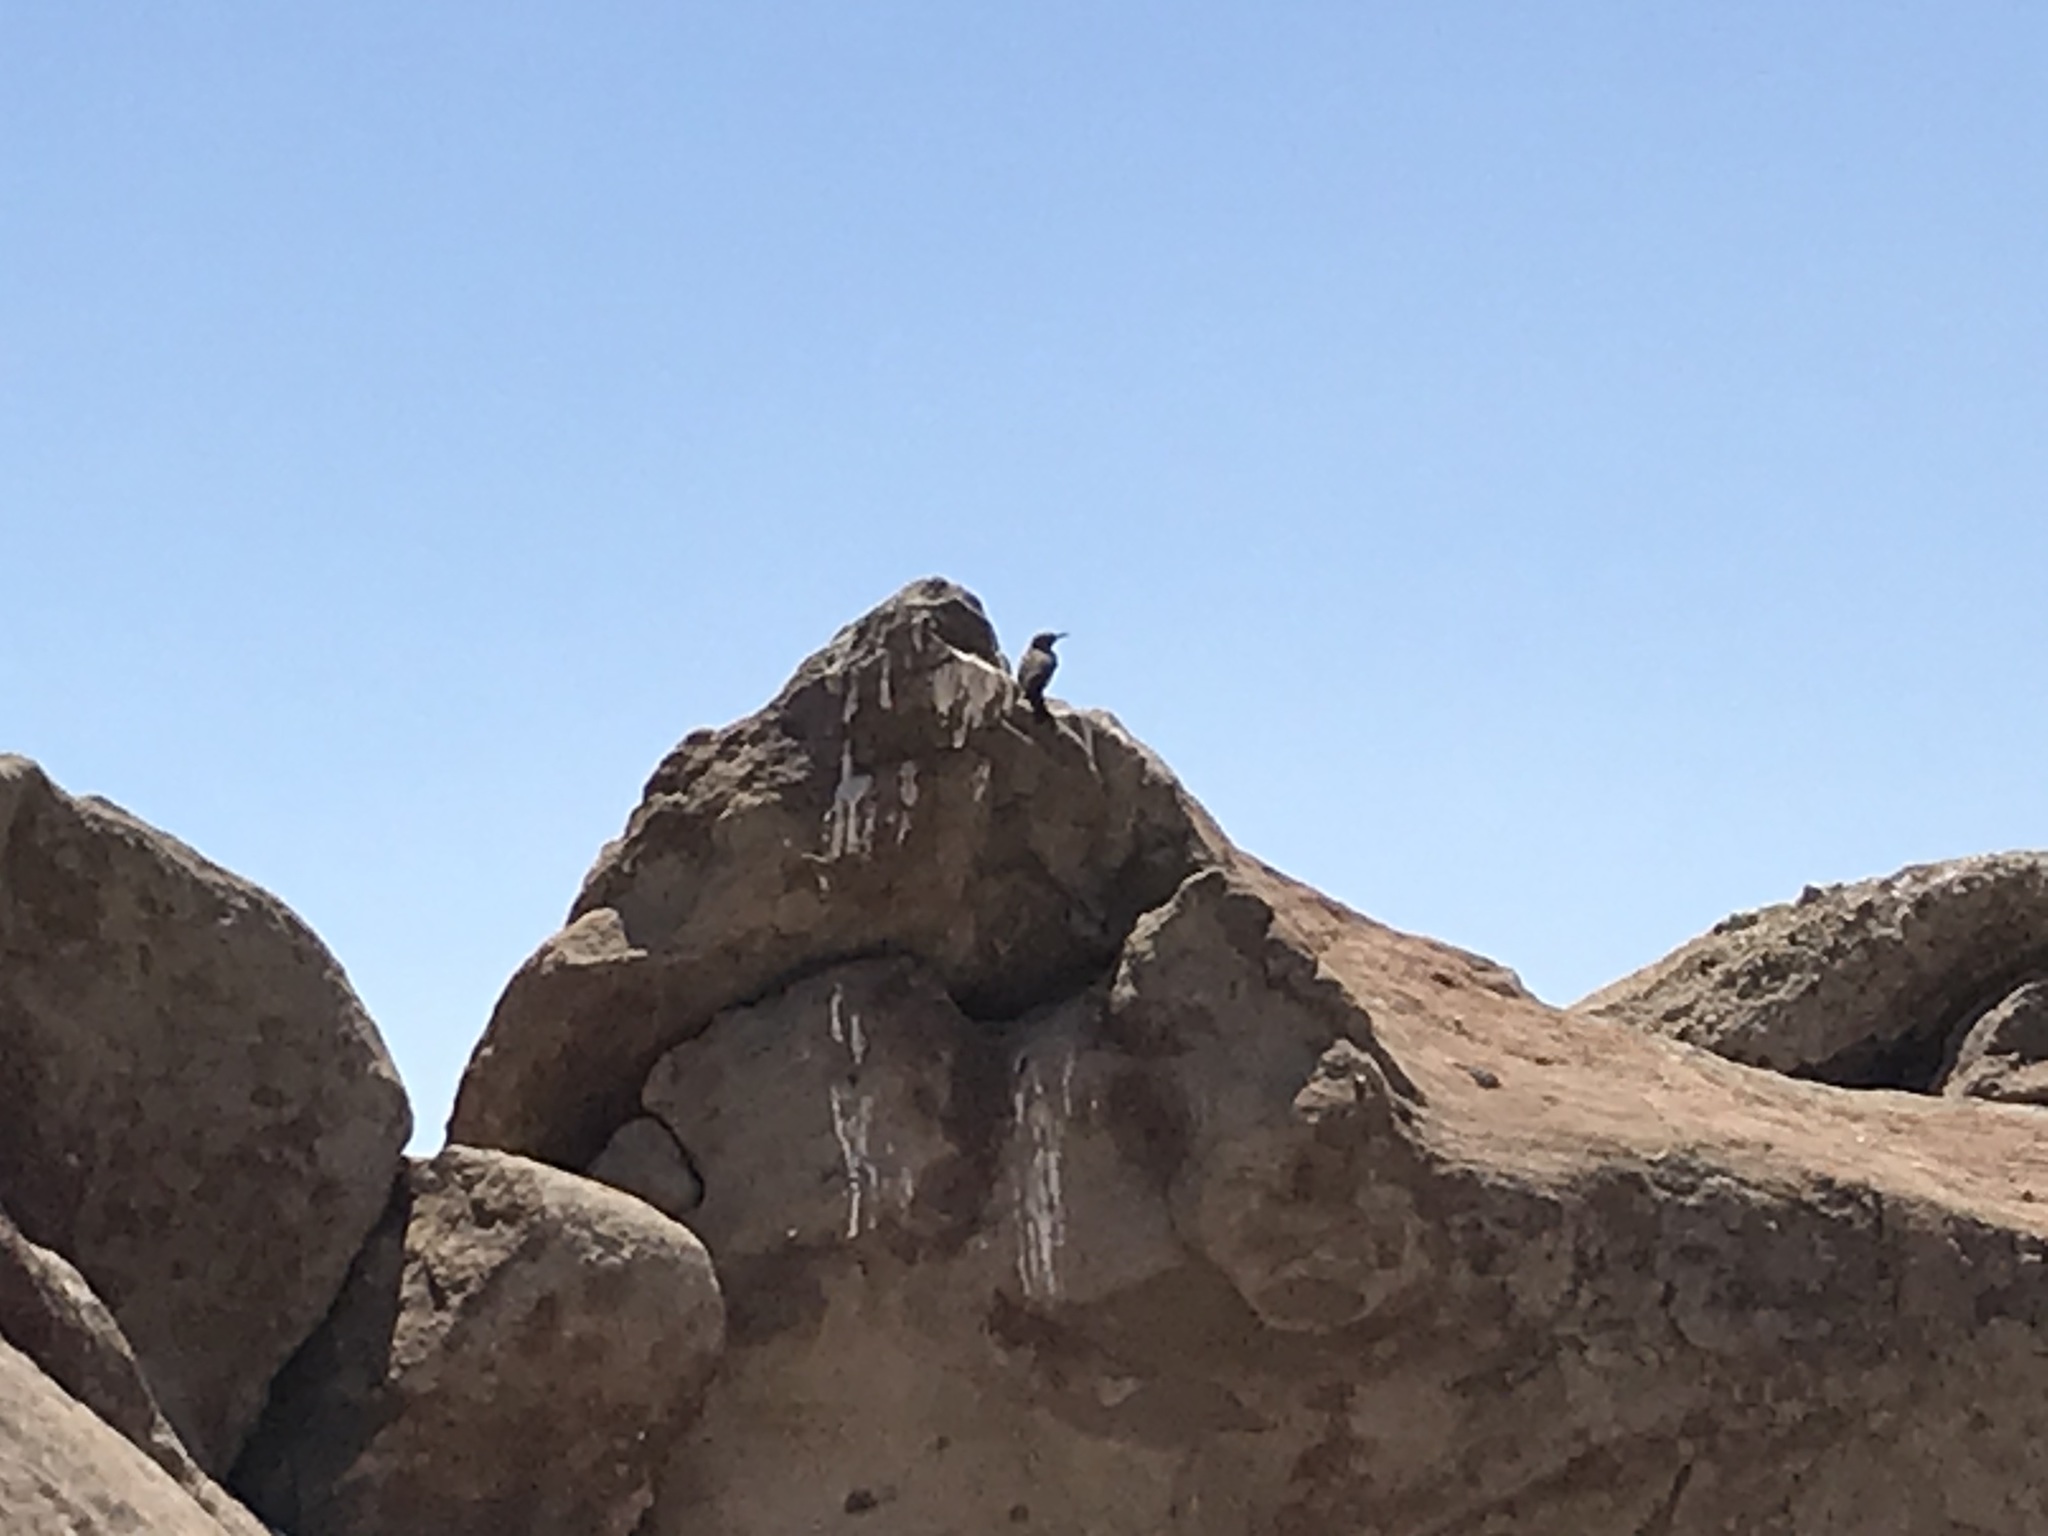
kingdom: Animalia
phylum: Chordata
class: Aves
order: Passeriformes
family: Troglodytidae
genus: Salpinctes
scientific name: Salpinctes obsoletus
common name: Rock wren
